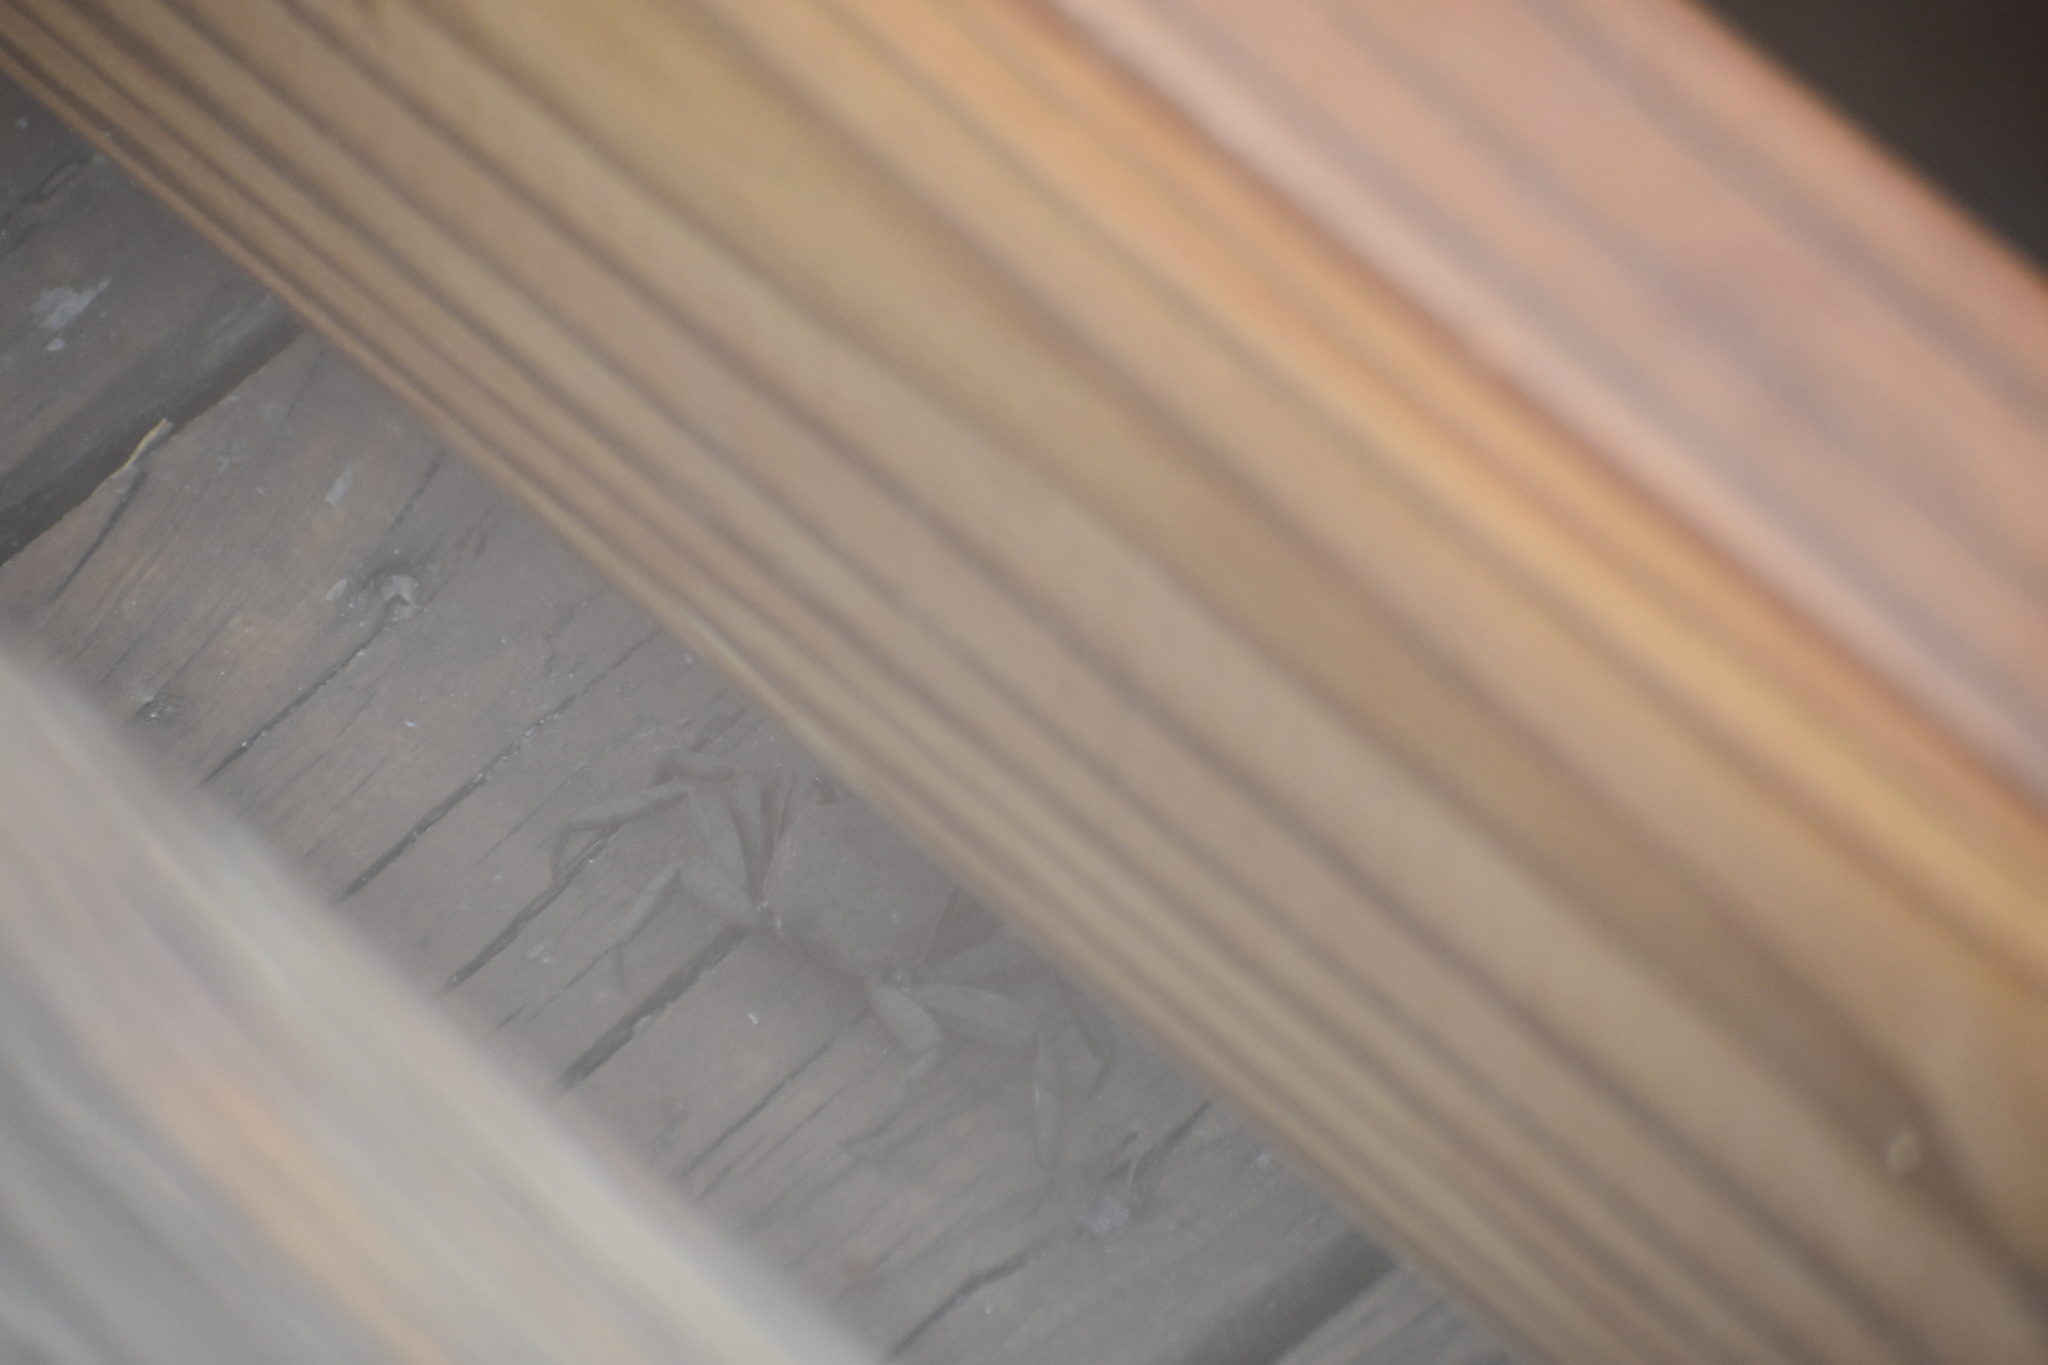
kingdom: Animalia
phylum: Arthropoda
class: Malacostraca
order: Decapoda
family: Sesarmidae
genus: Armases
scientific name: Armases cinereum
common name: Squareback marsh crab
